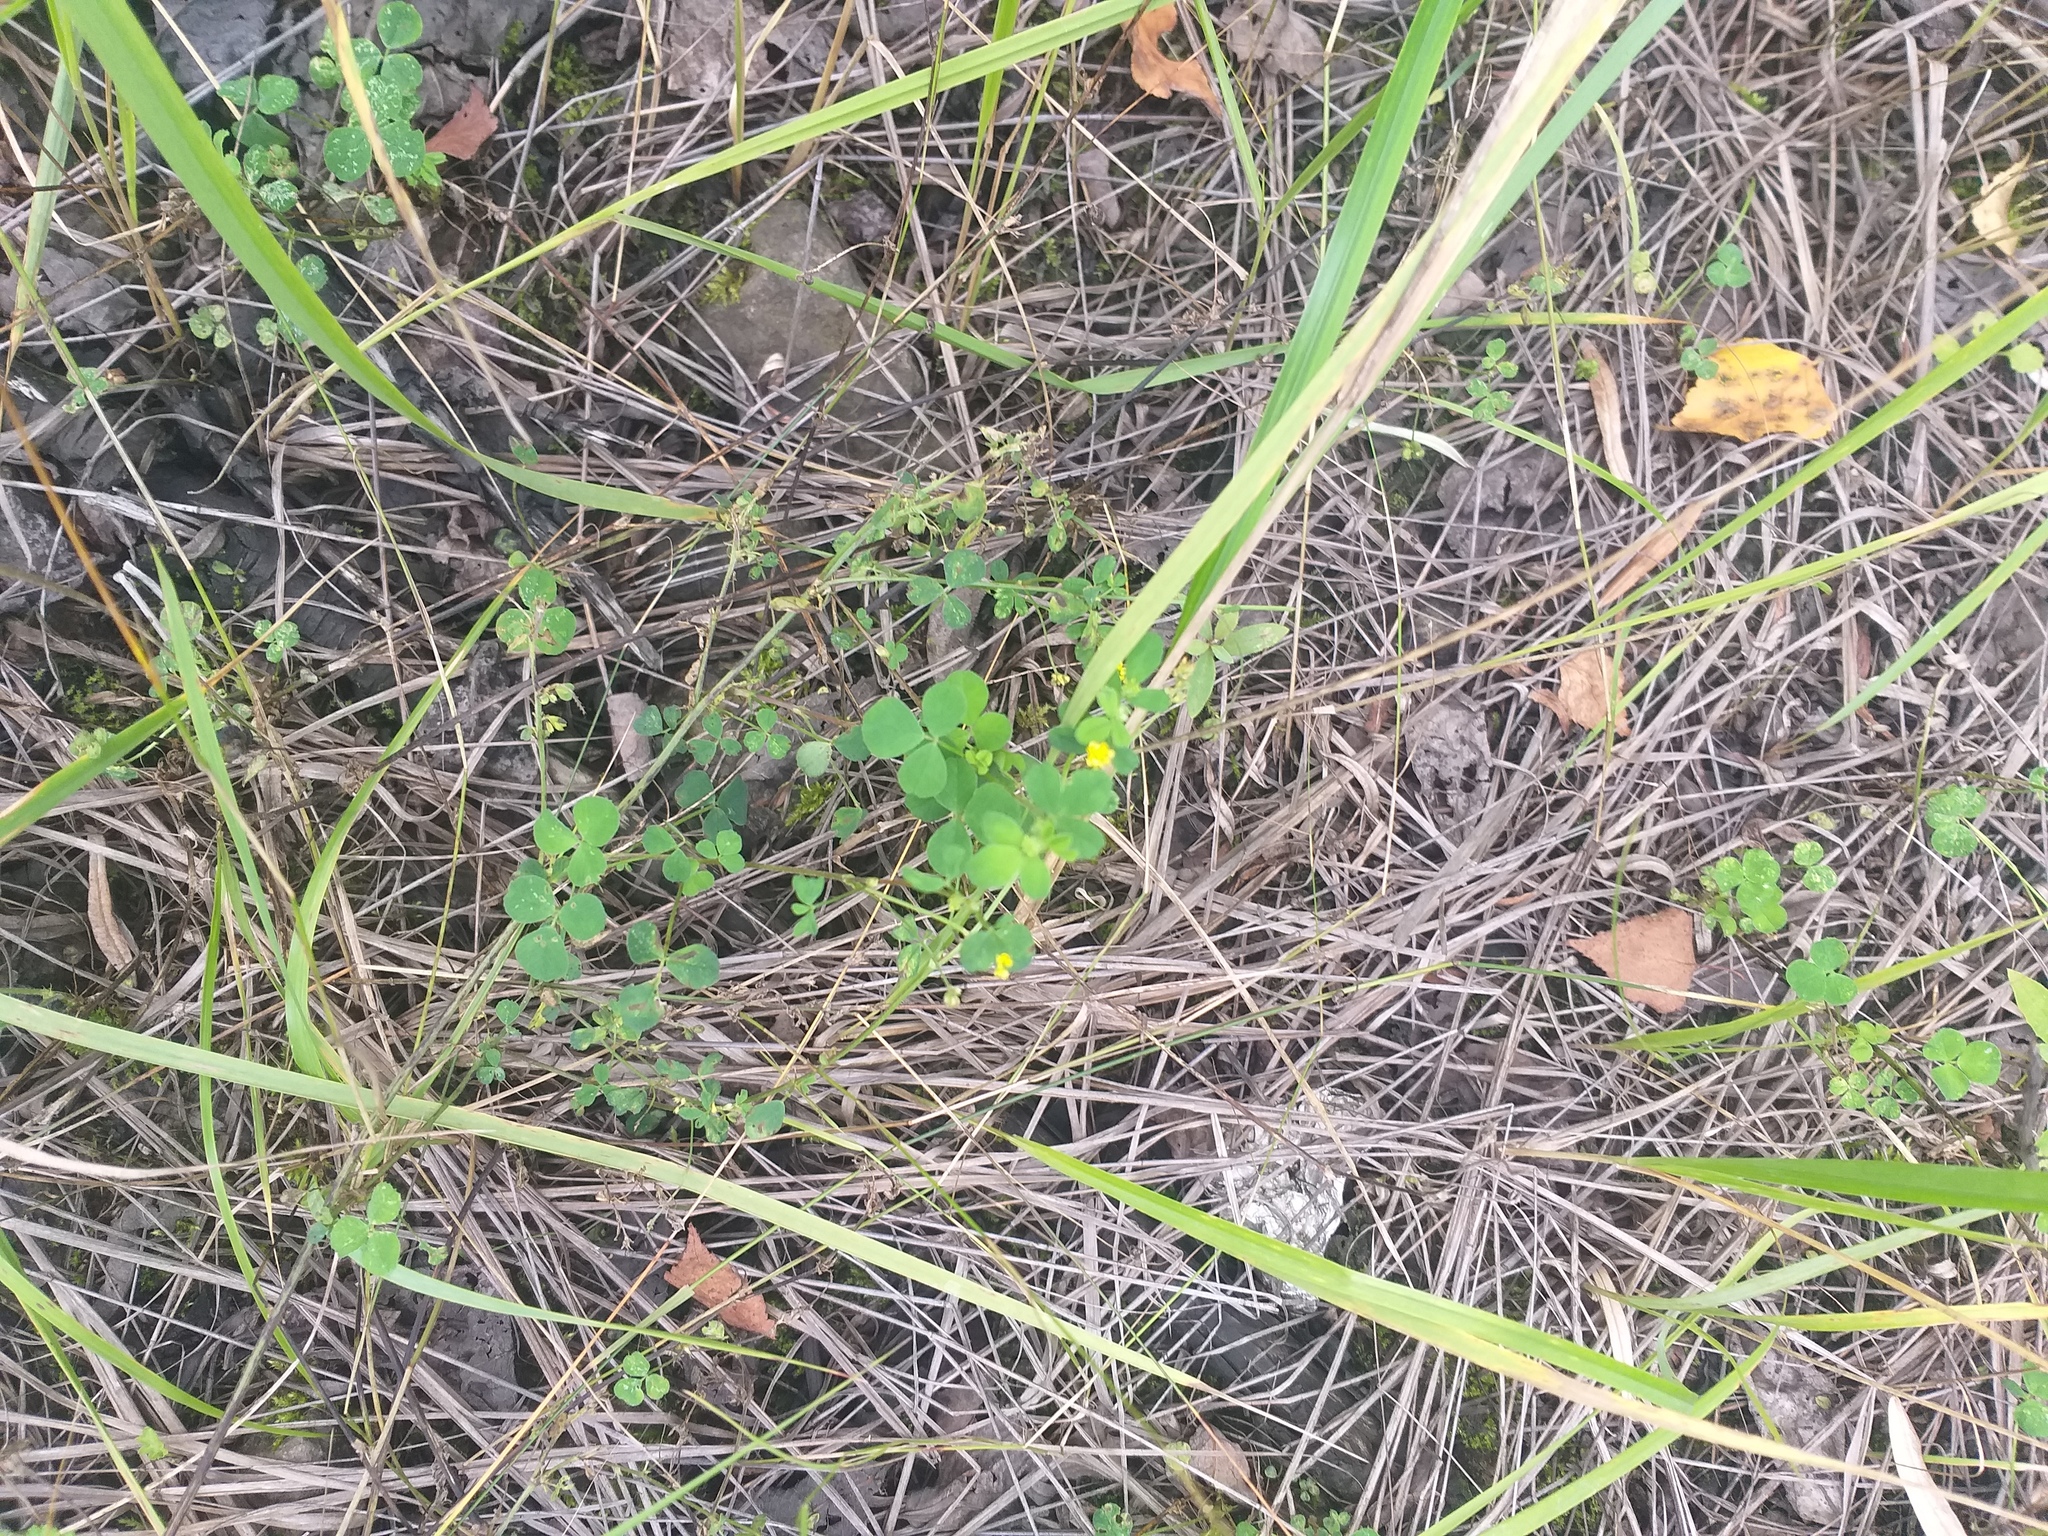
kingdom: Plantae
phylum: Tracheophyta
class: Magnoliopsida
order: Fabales
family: Fabaceae
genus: Medicago
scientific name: Medicago lupulina
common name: Black medick
